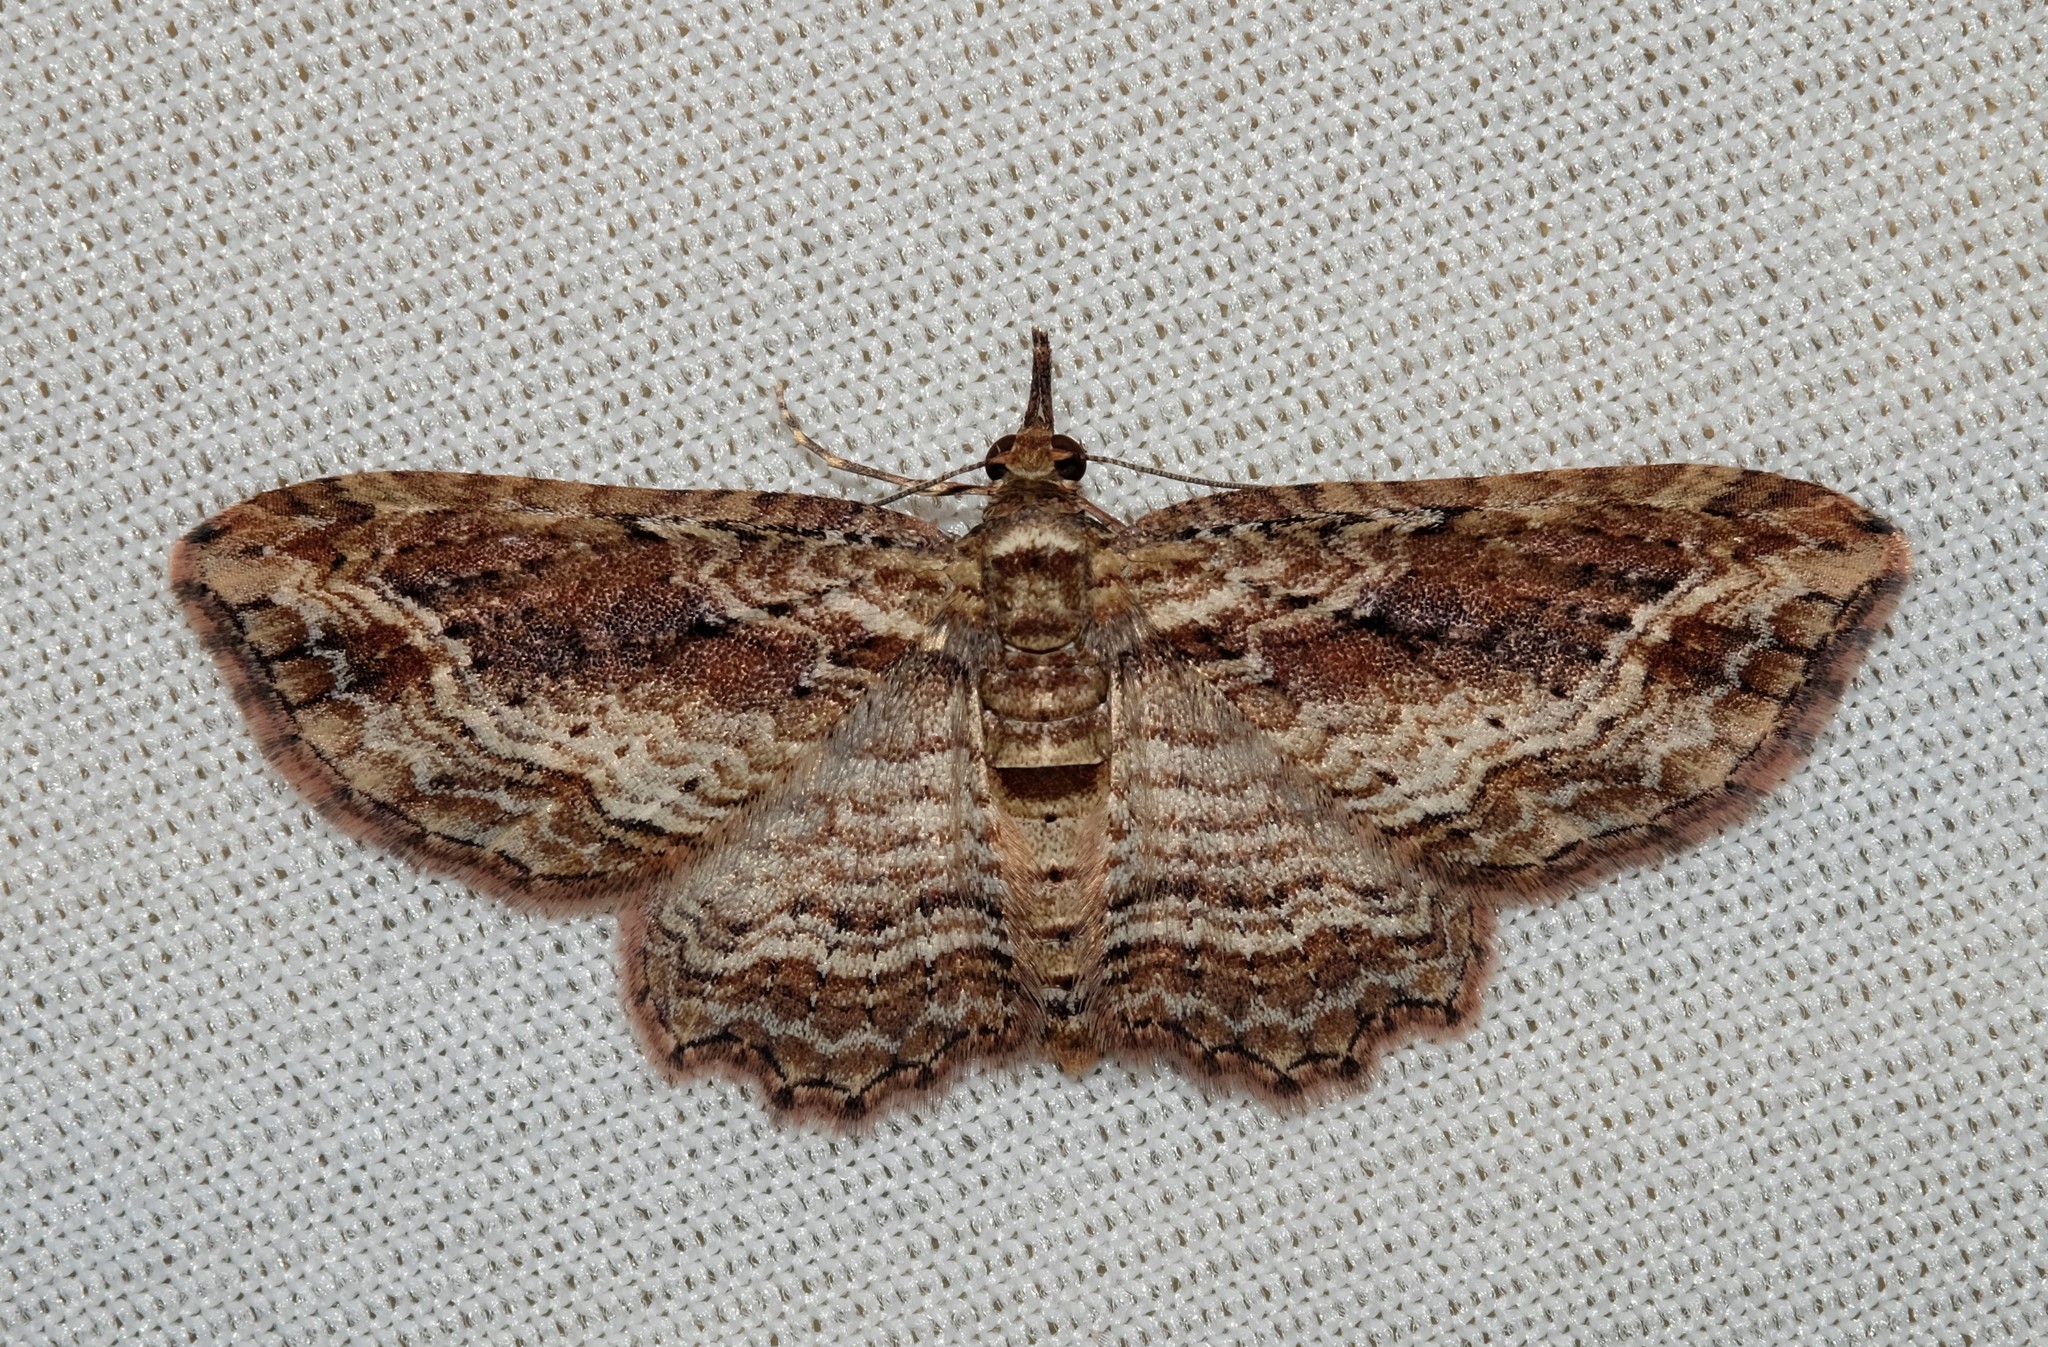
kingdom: Animalia
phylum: Arthropoda
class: Insecta
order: Lepidoptera
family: Geometridae
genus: Chloroclystis
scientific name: Chloroclystis filata
